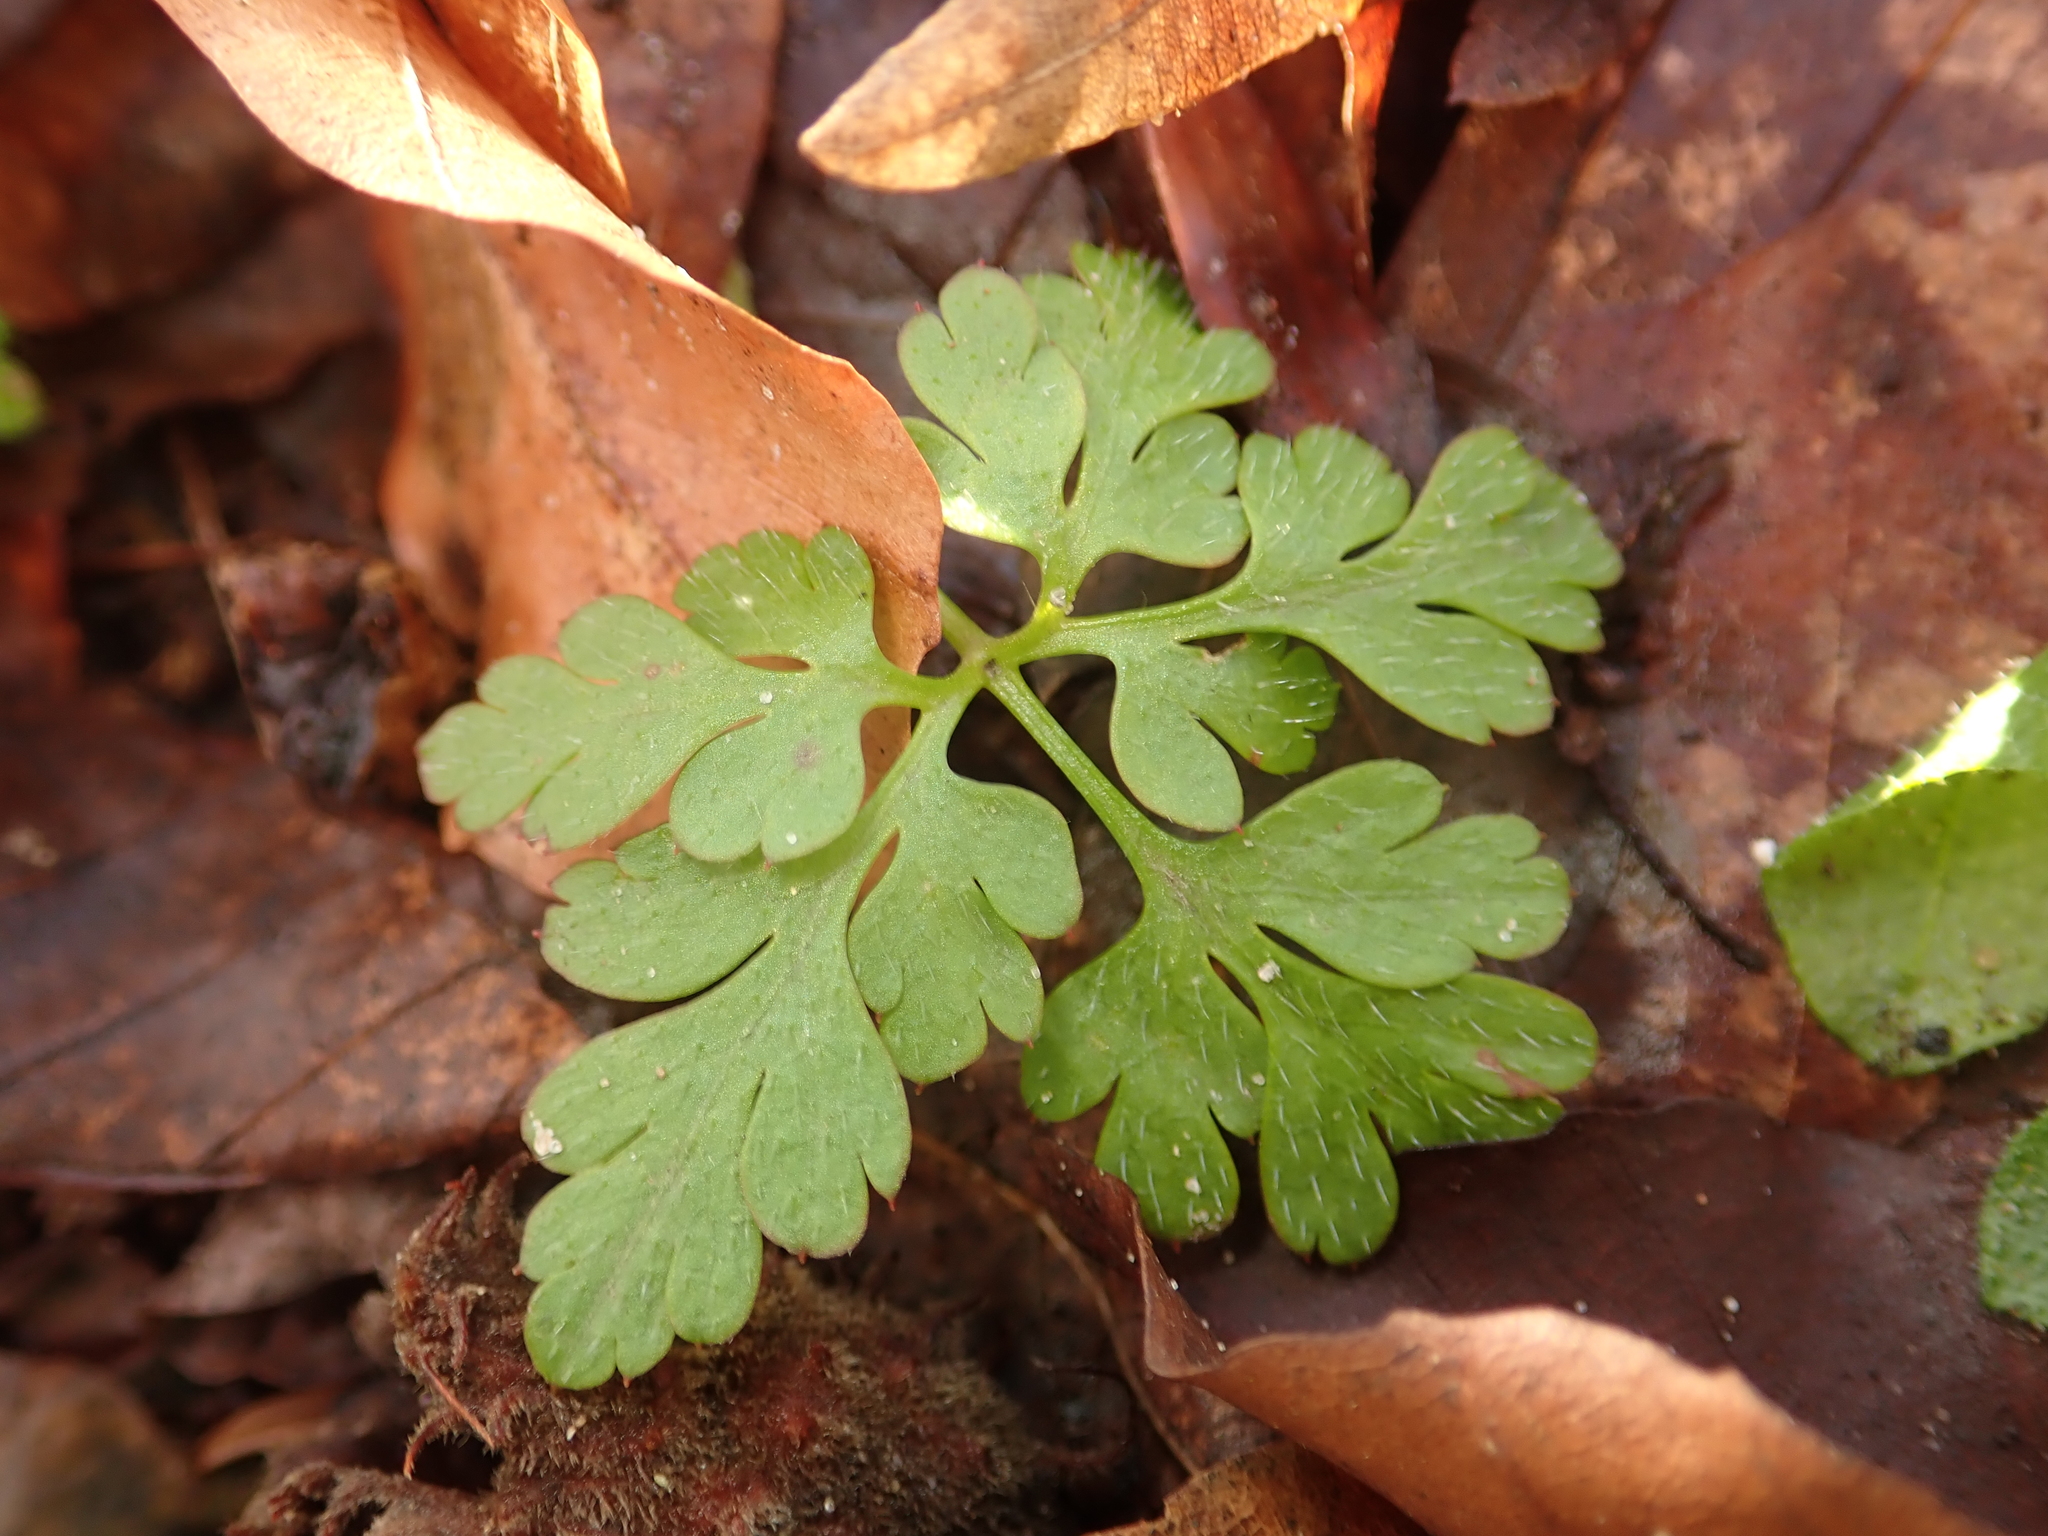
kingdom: Plantae
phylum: Tracheophyta
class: Magnoliopsida
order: Geraniales
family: Geraniaceae
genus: Geranium
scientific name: Geranium robertianum
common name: Herb-robert
